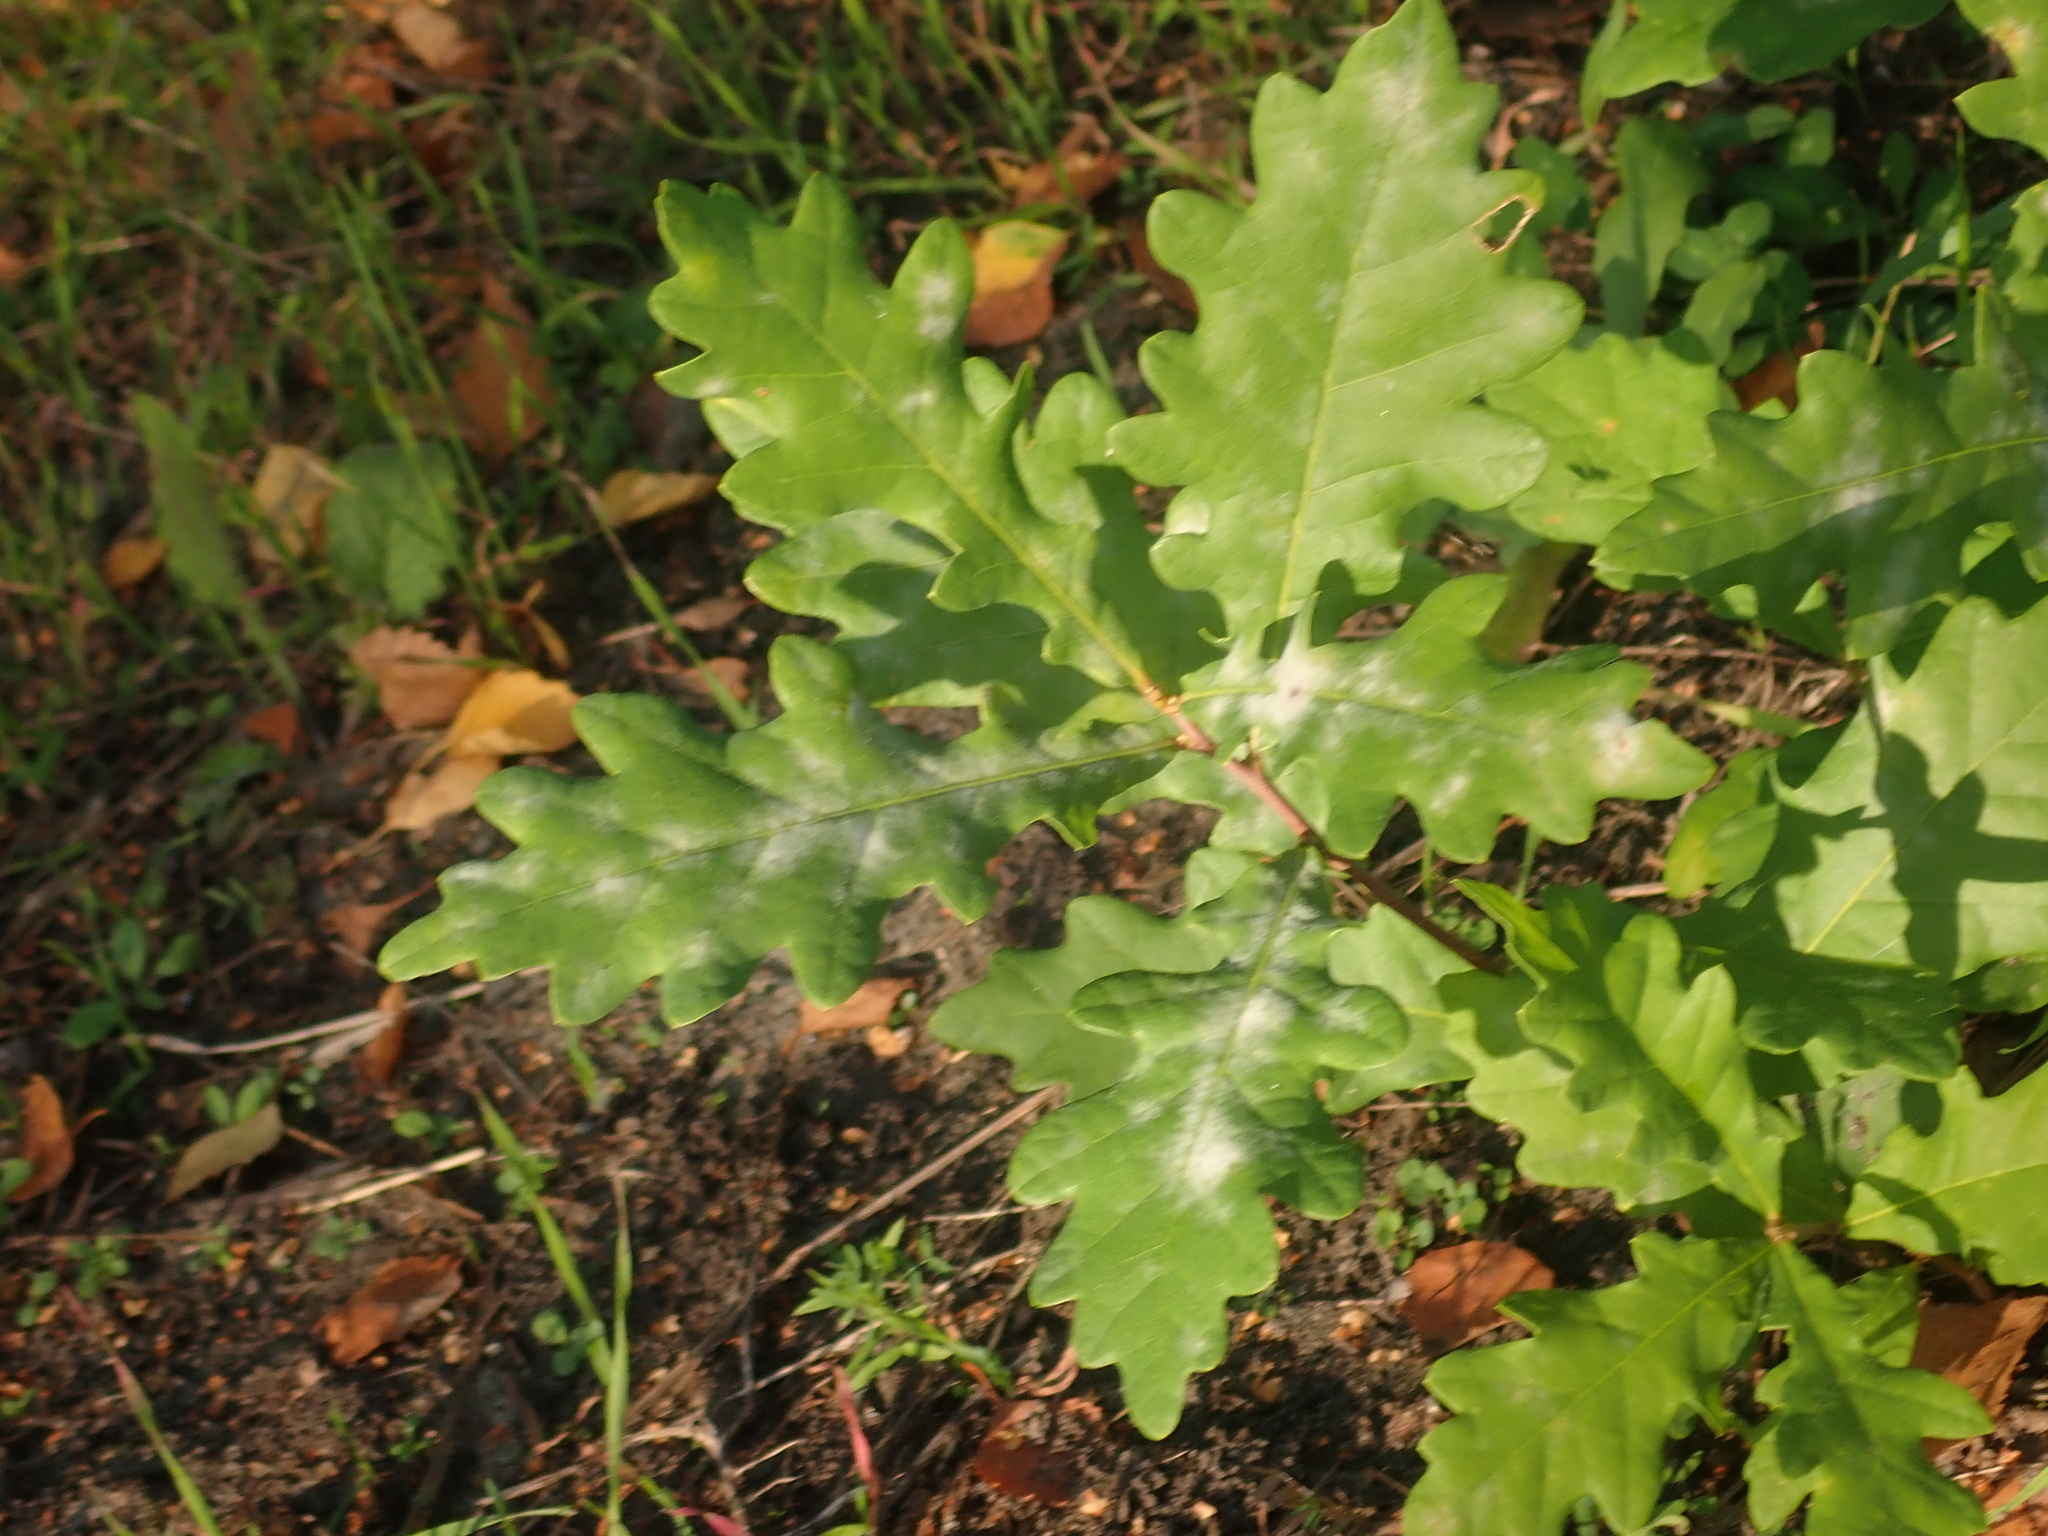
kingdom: Plantae
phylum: Tracheophyta
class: Magnoliopsida
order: Fagales
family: Fagaceae
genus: Quercus
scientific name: Quercus robur
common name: Pedunculate oak
